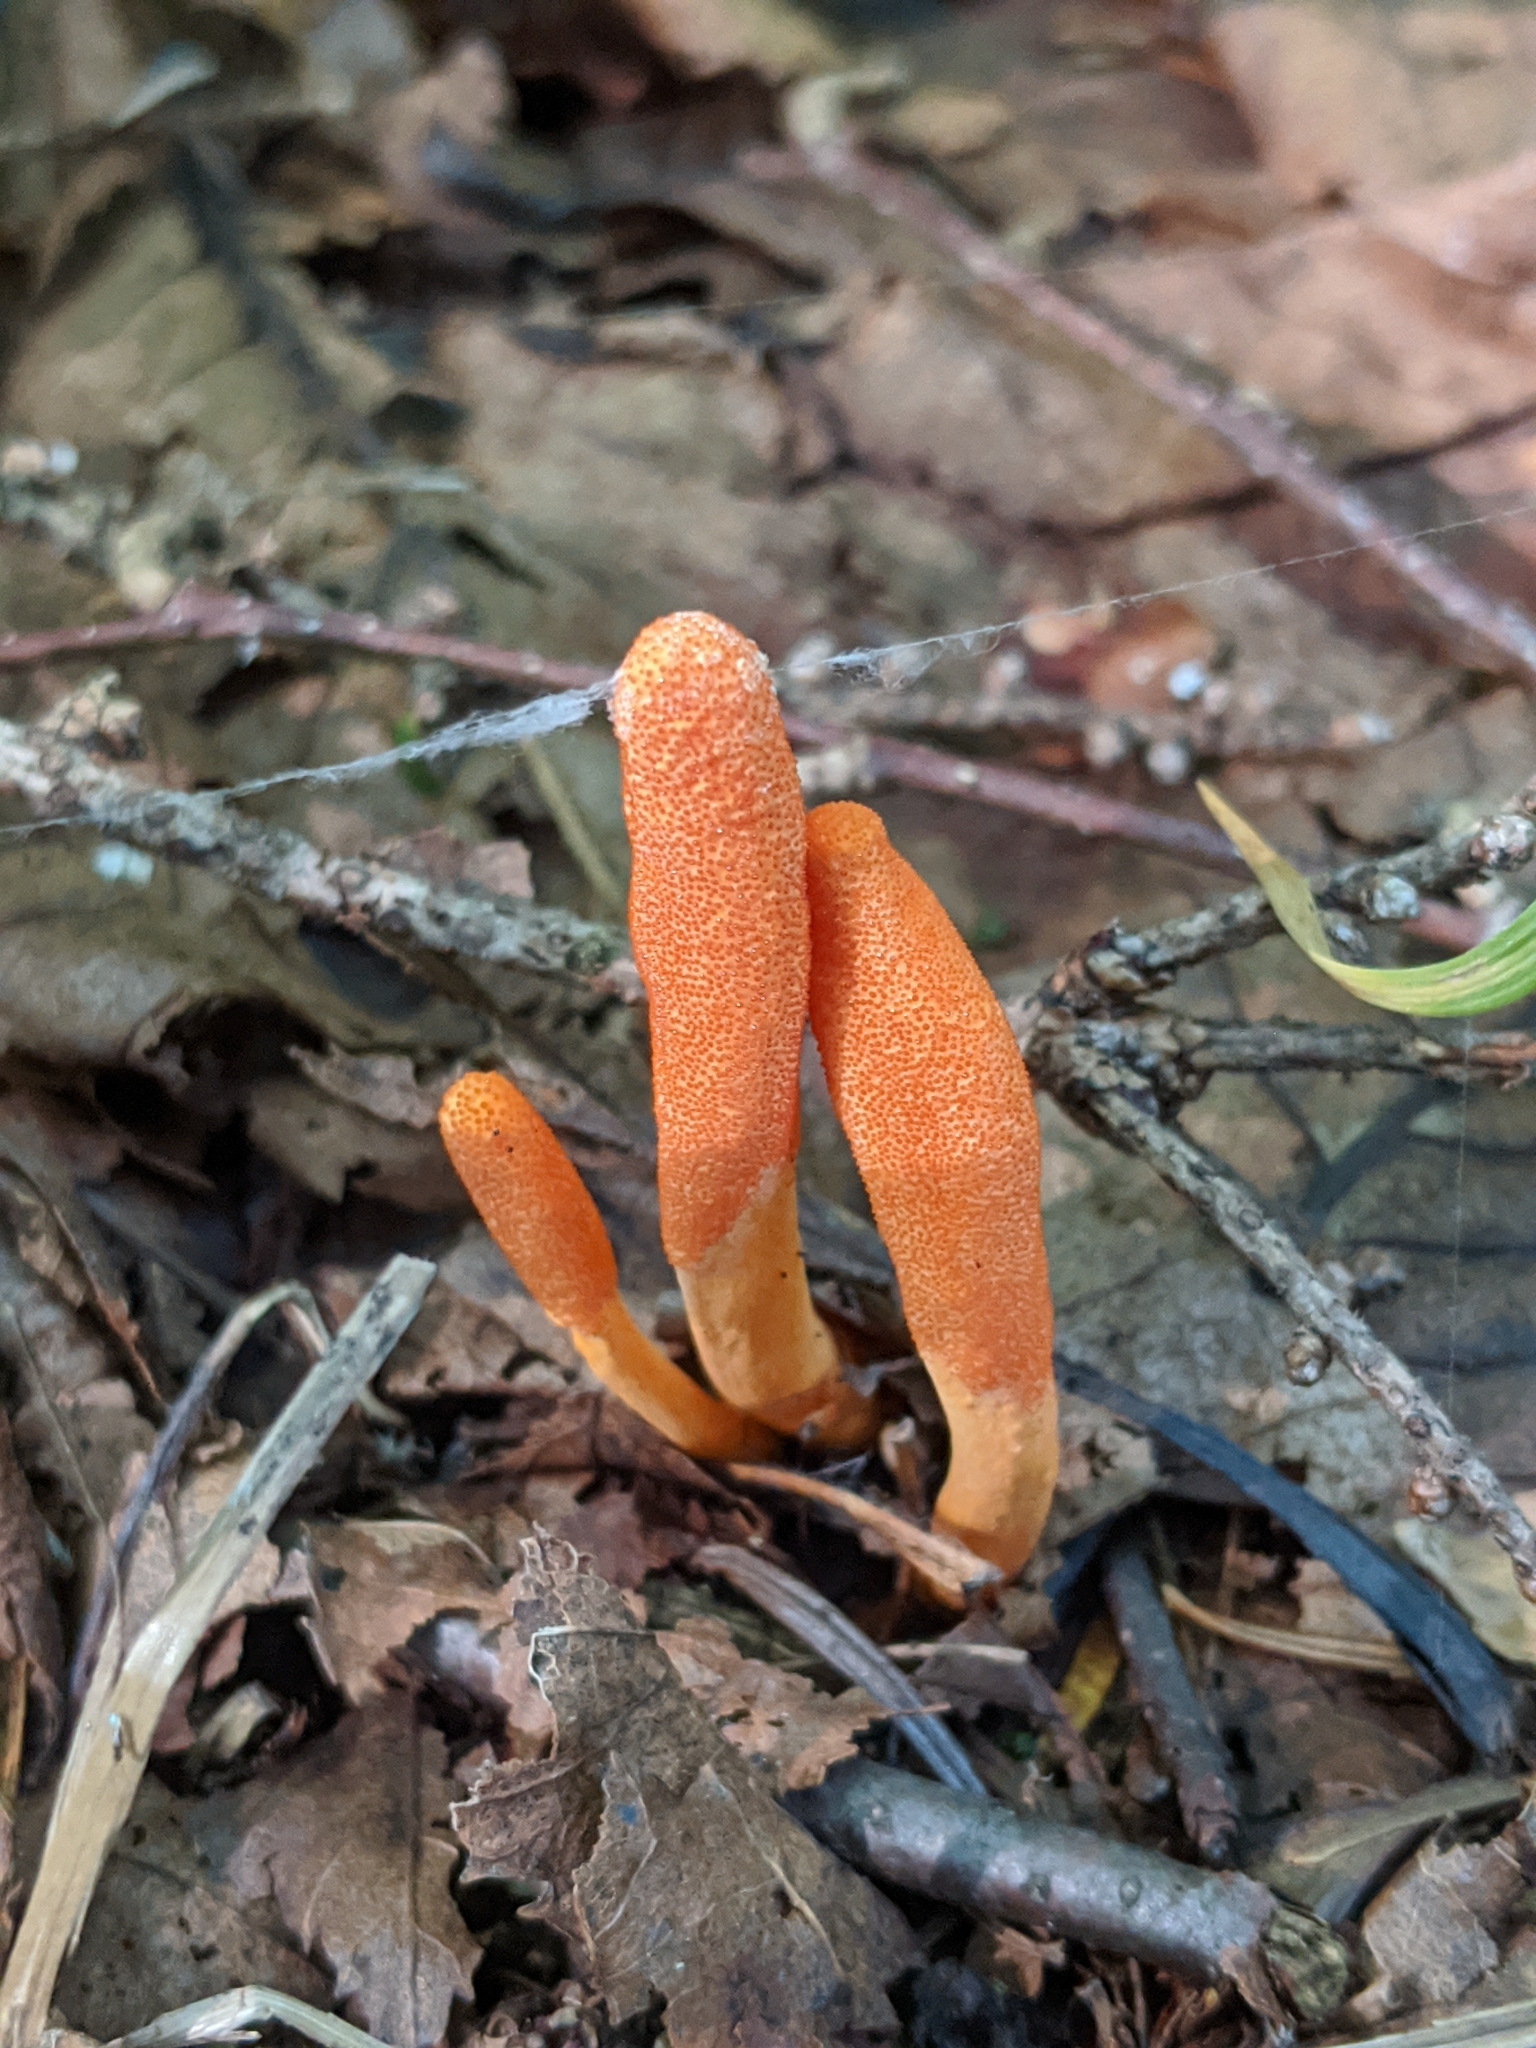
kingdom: Fungi
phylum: Ascomycota
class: Sordariomycetes
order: Hypocreales
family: Cordycipitaceae
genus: Cordyceps
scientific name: Cordyceps militaris
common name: Scarlet caterpillar fungus
